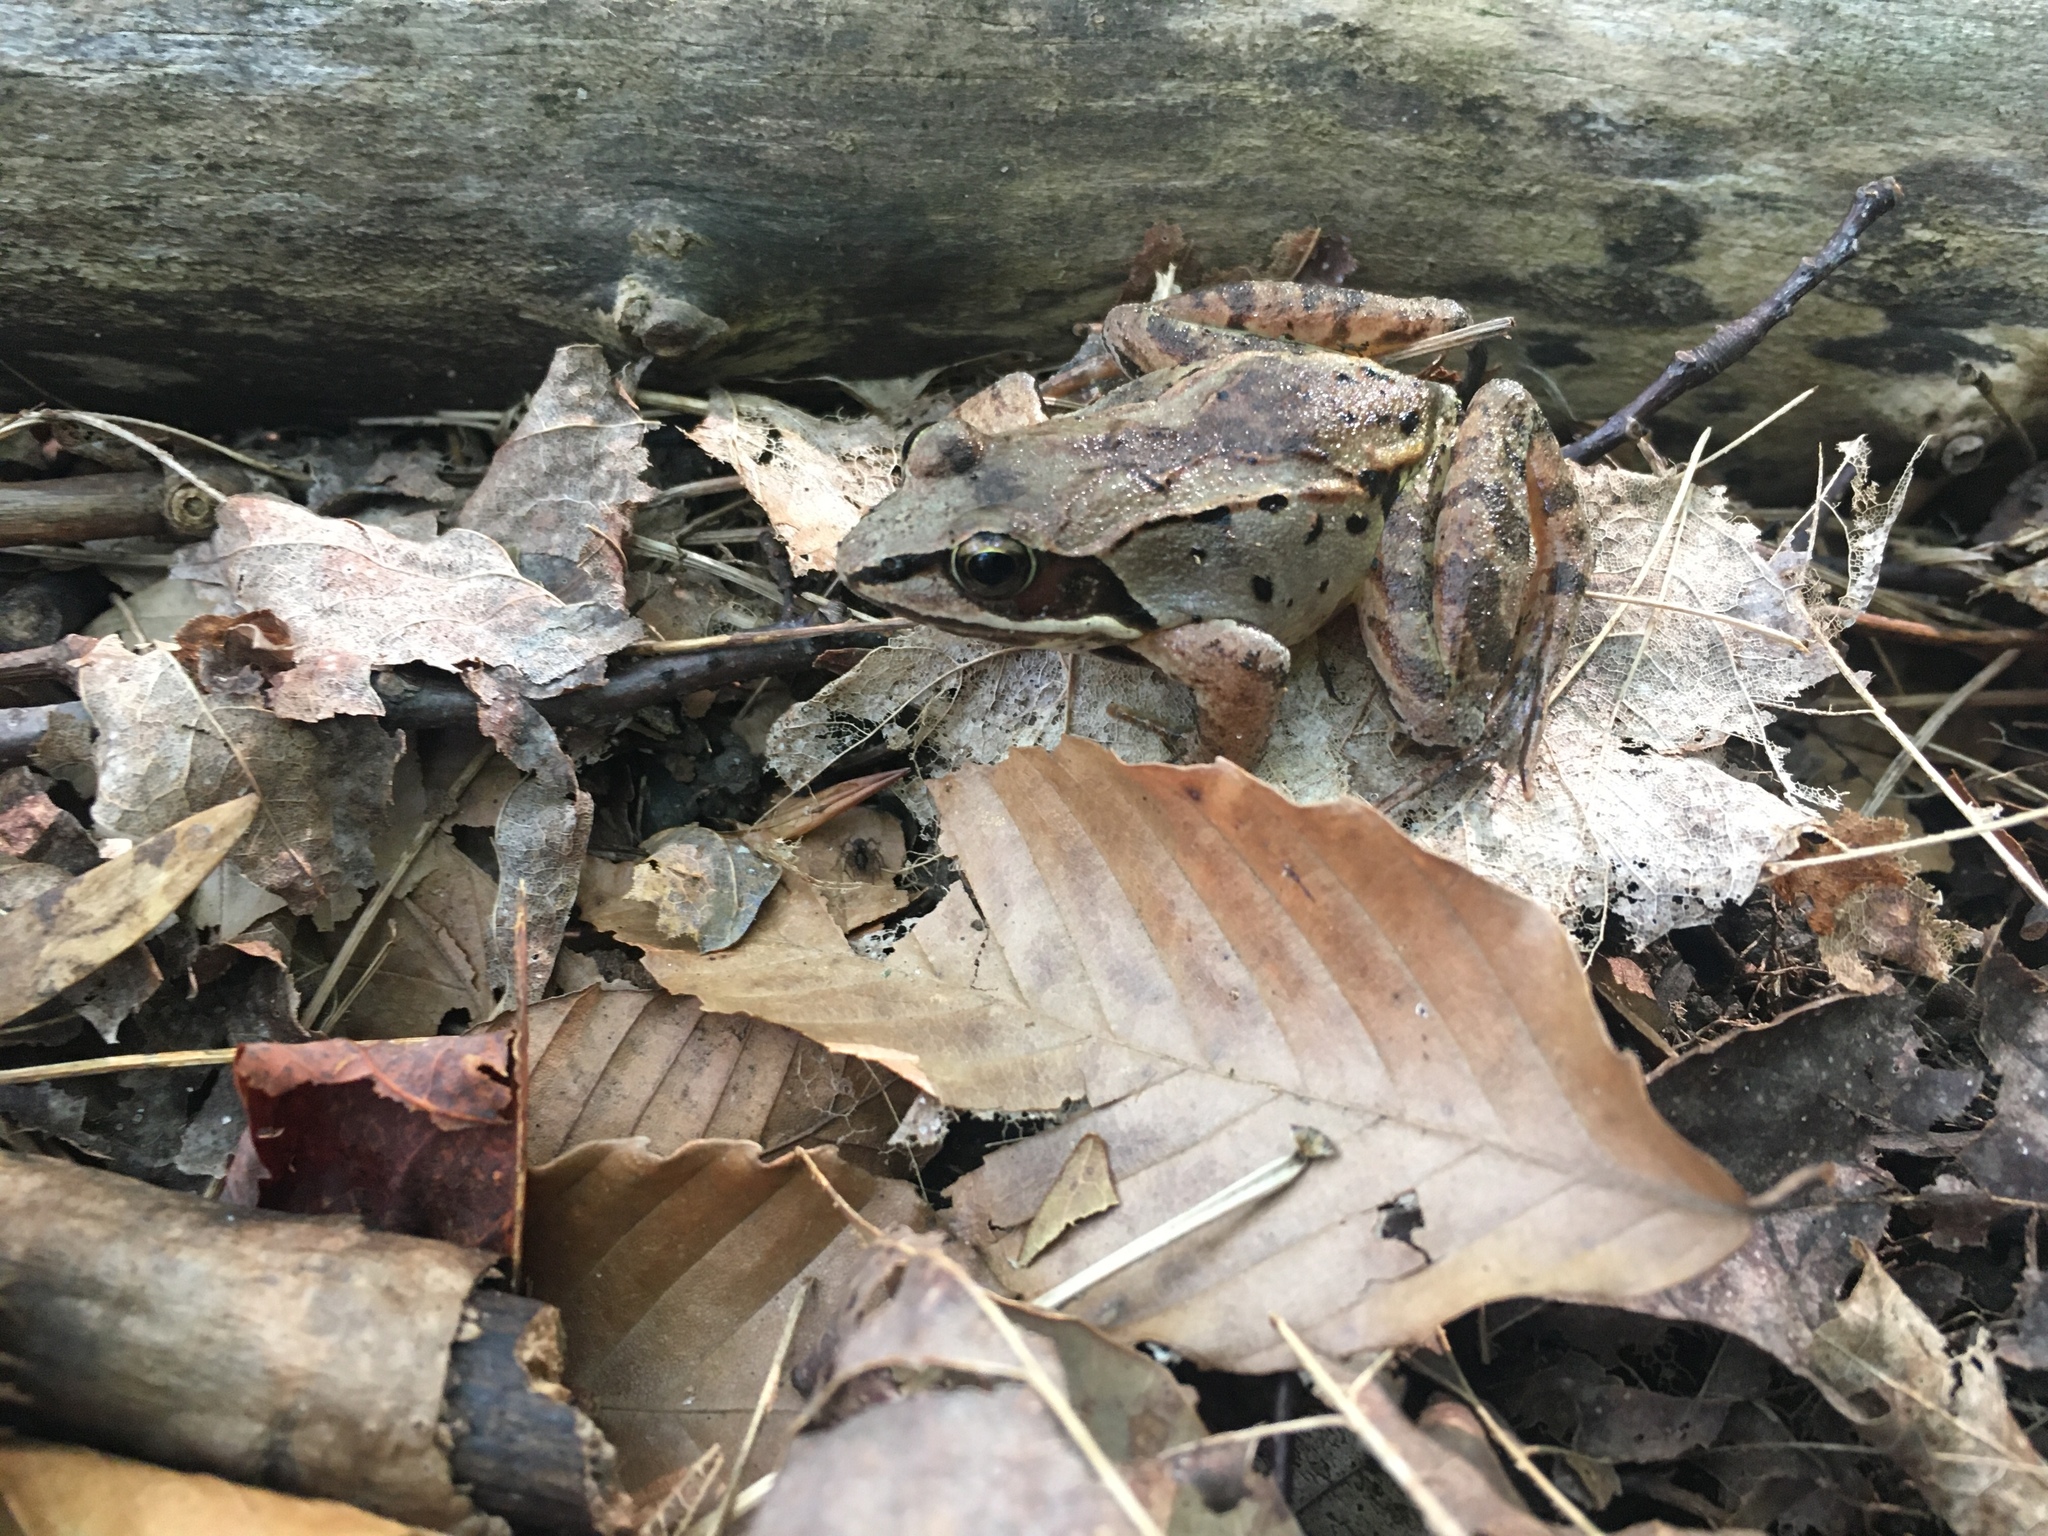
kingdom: Animalia
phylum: Chordata
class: Amphibia
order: Anura
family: Ranidae
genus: Lithobates
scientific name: Lithobates sylvaticus
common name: Wood frog
